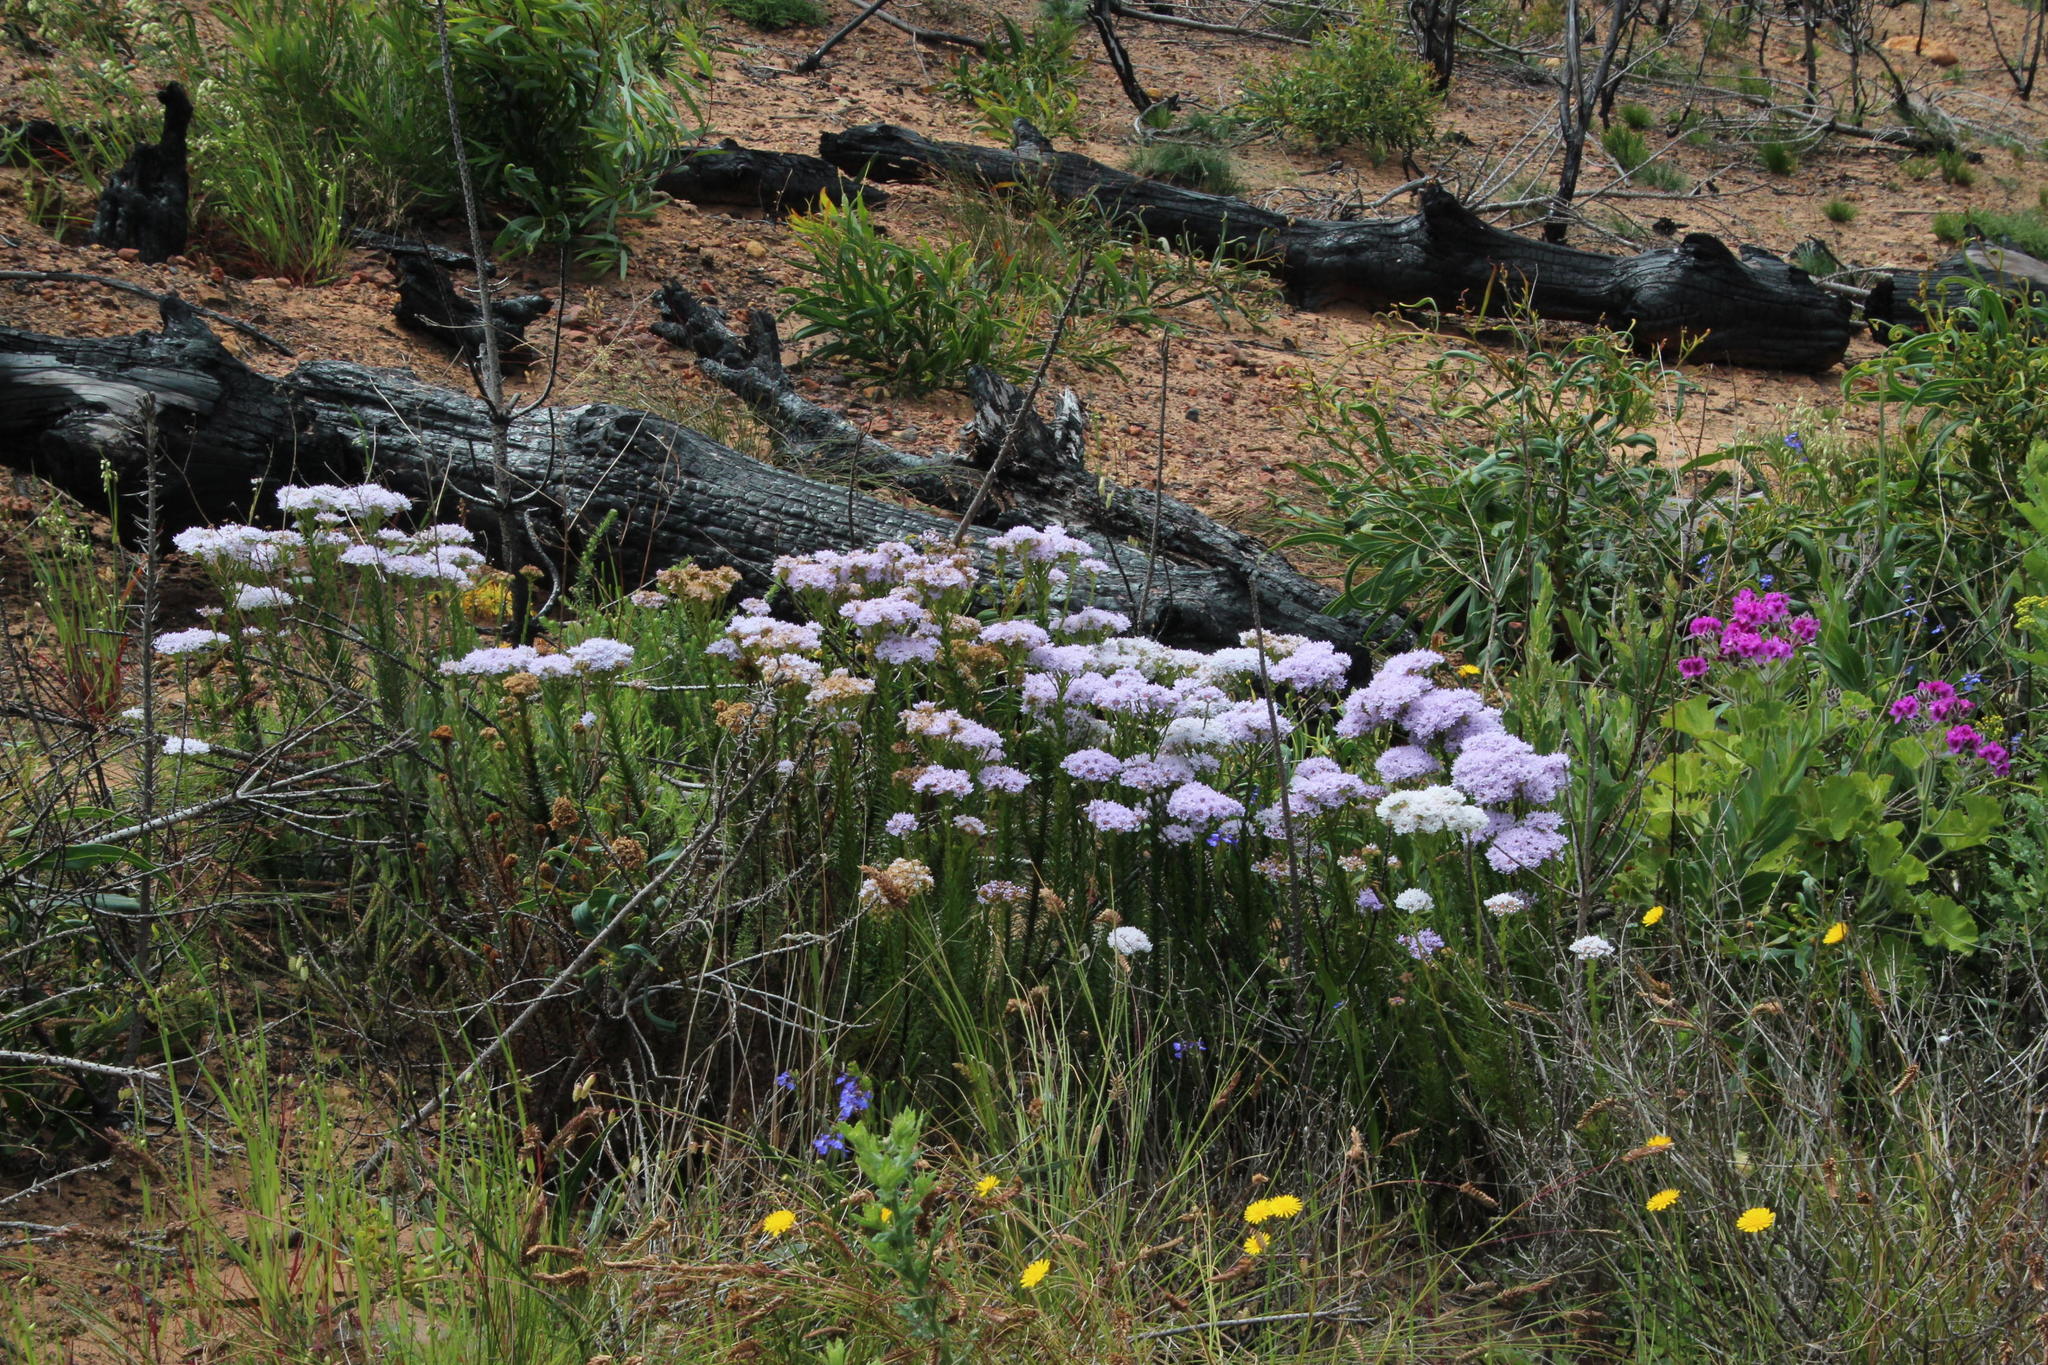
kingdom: Plantae
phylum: Tracheophyta
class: Magnoliopsida
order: Lamiales
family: Scrophulariaceae
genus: Pseudoselago
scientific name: Pseudoselago spuria
